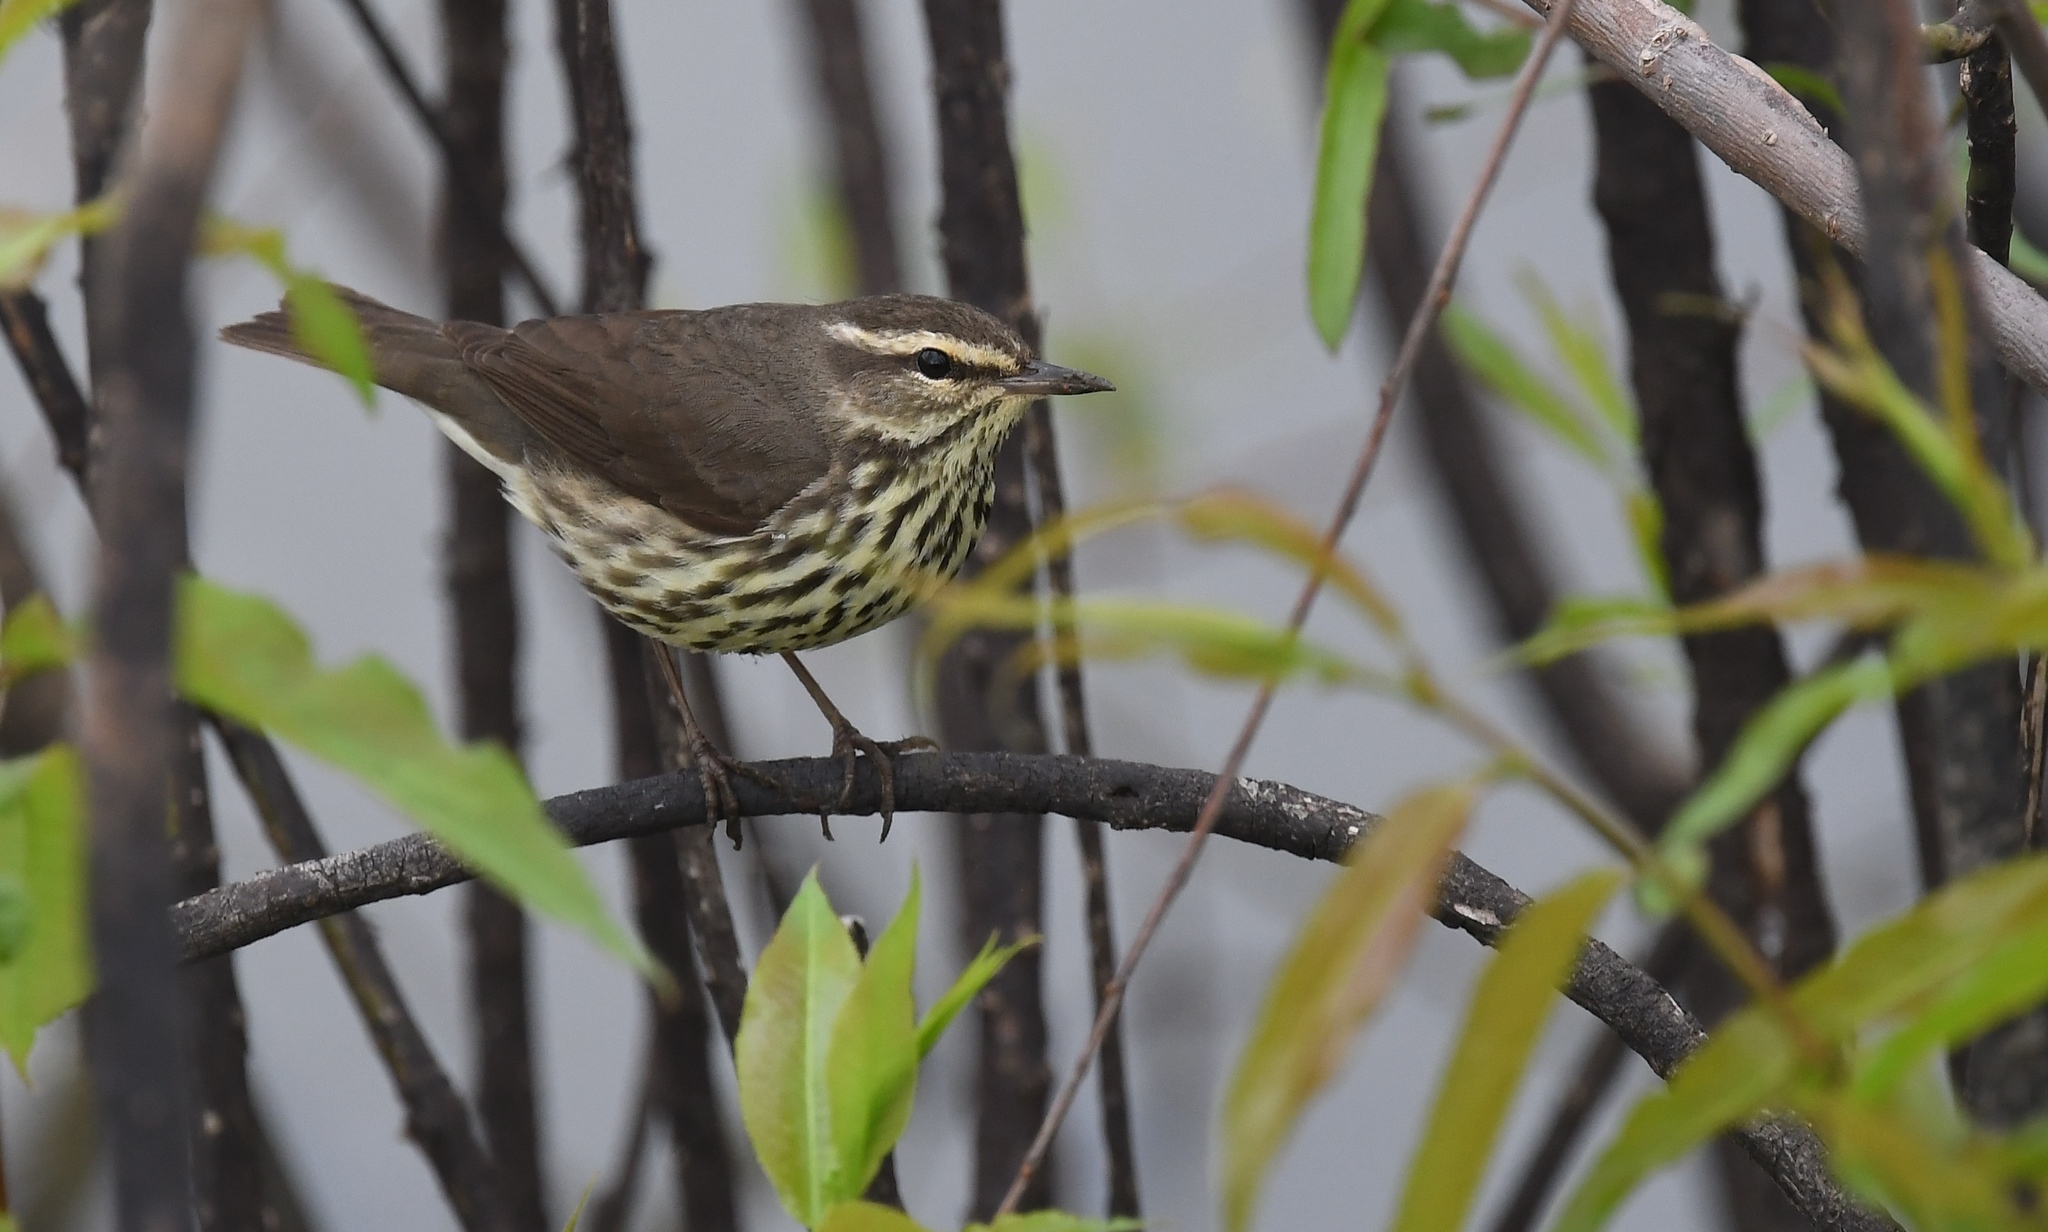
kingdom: Animalia
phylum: Chordata
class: Aves
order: Passeriformes
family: Parulidae
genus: Parkesia
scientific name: Parkesia noveboracensis
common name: Northern waterthrush
